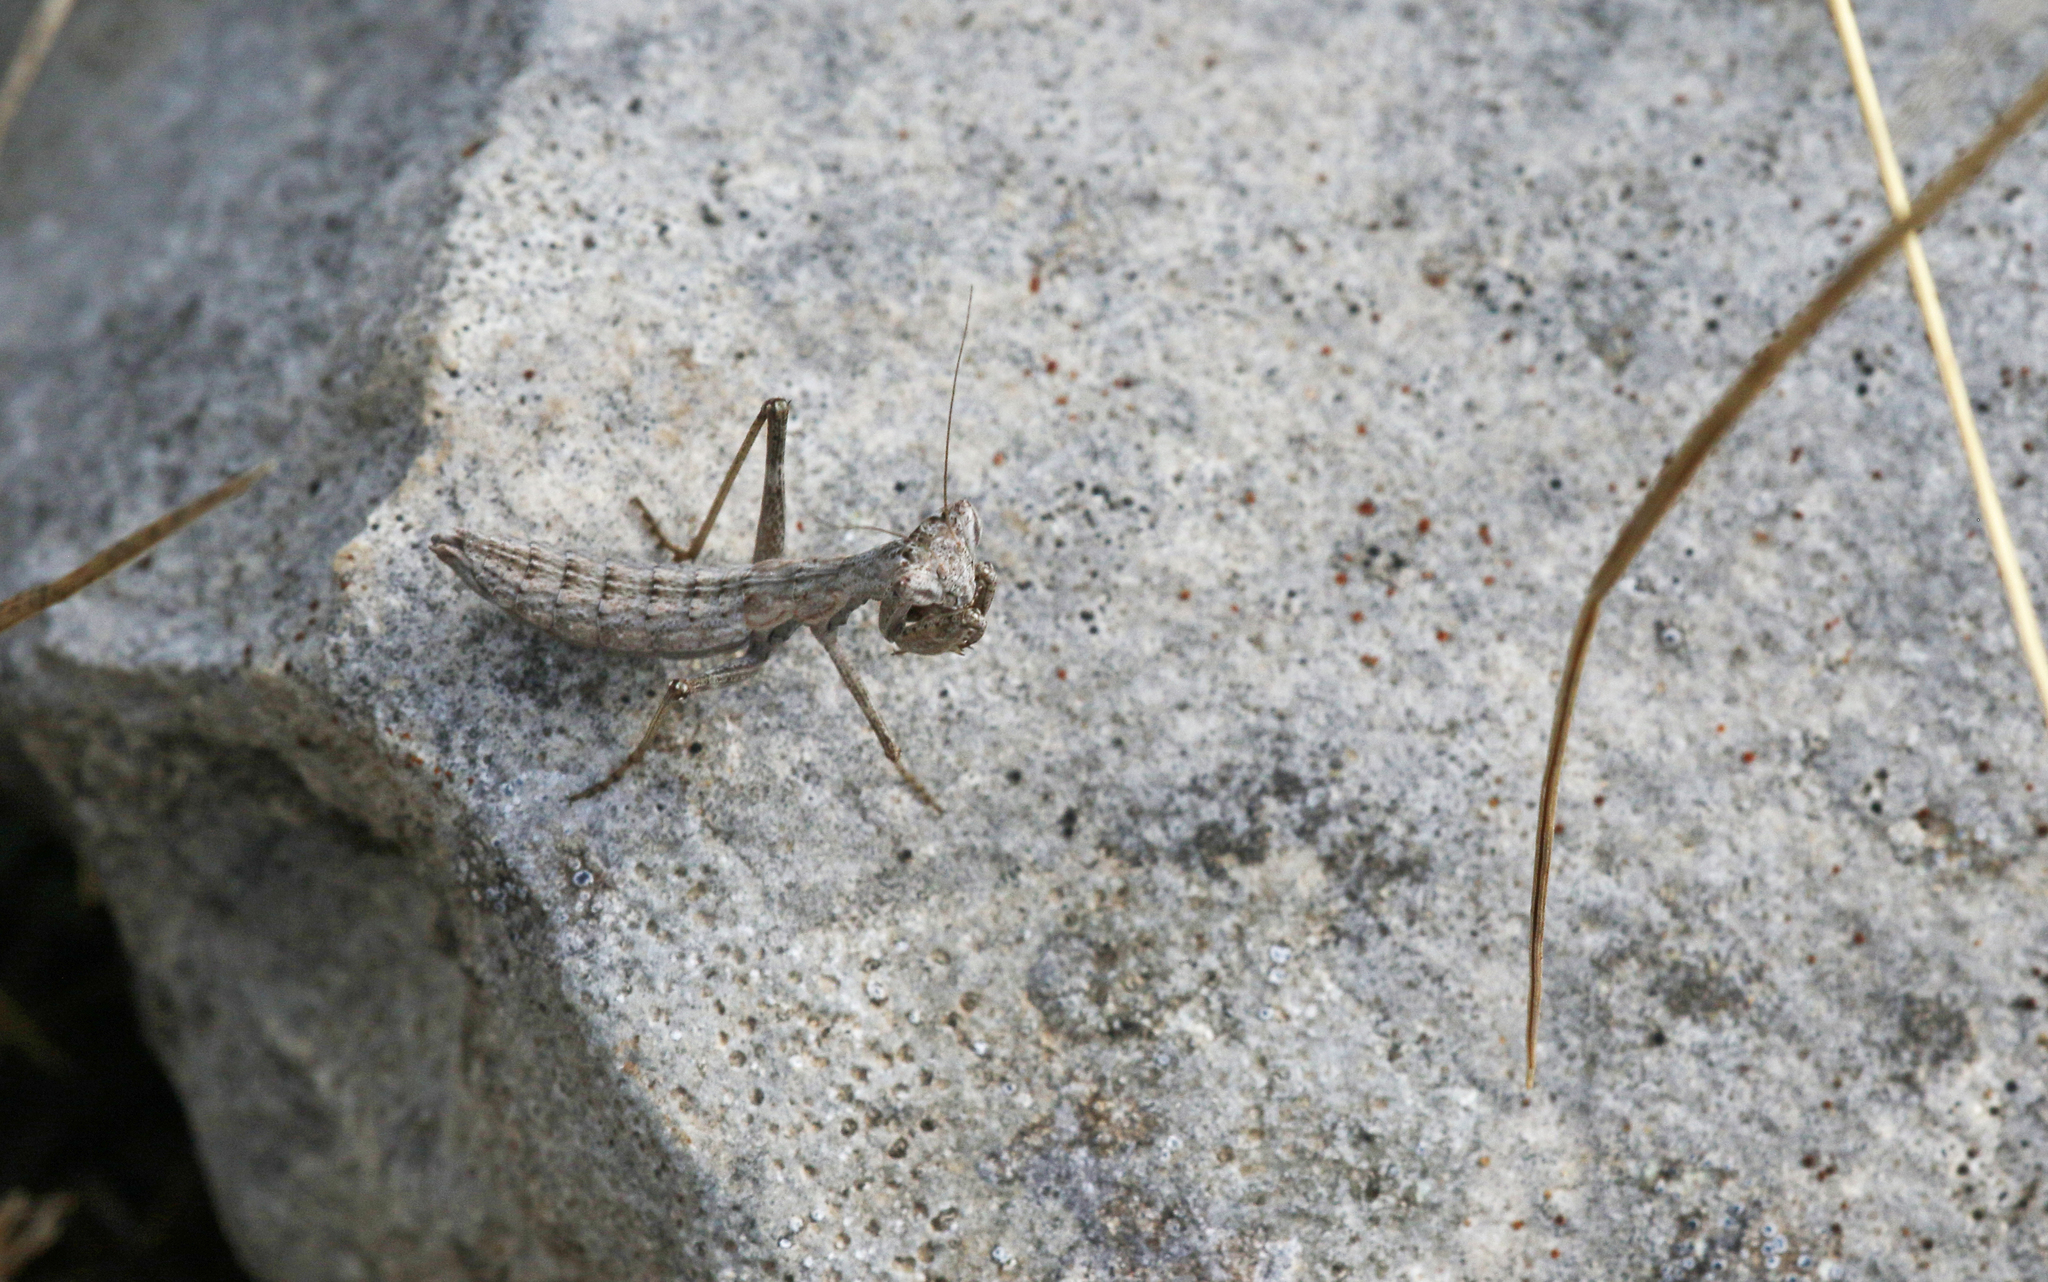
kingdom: Animalia
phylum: Arthropoda
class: Insecta
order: Mantodea
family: Amelidae
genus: Ameles
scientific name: Ameles decolor
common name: Dwarf mantis
